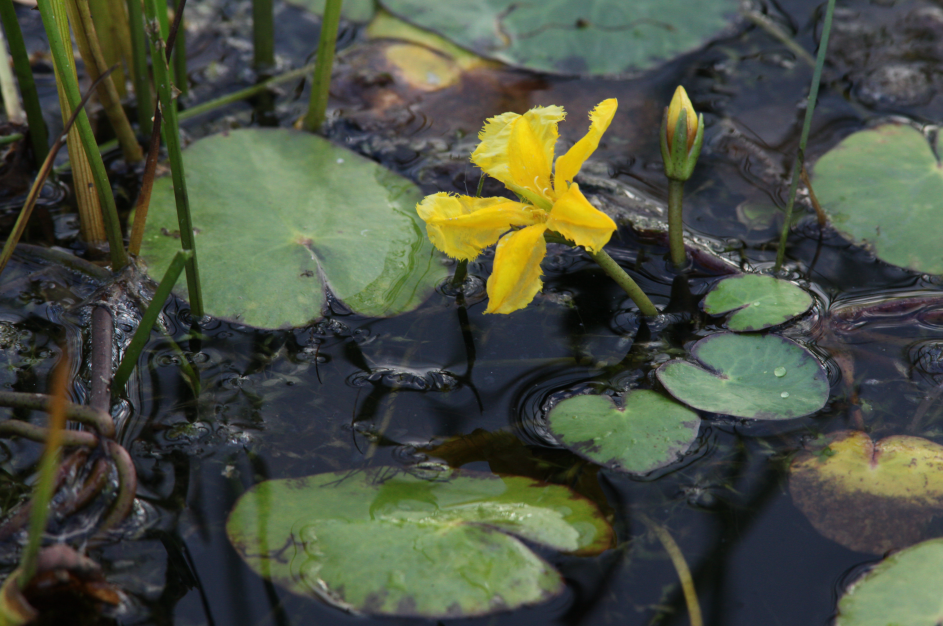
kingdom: Plantae
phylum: Tracheophyta
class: Magnoliopsida
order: Asterales
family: Menyanthaceae
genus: Nymphoides
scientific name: Nymphoides peltata
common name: Fringed water-lily
